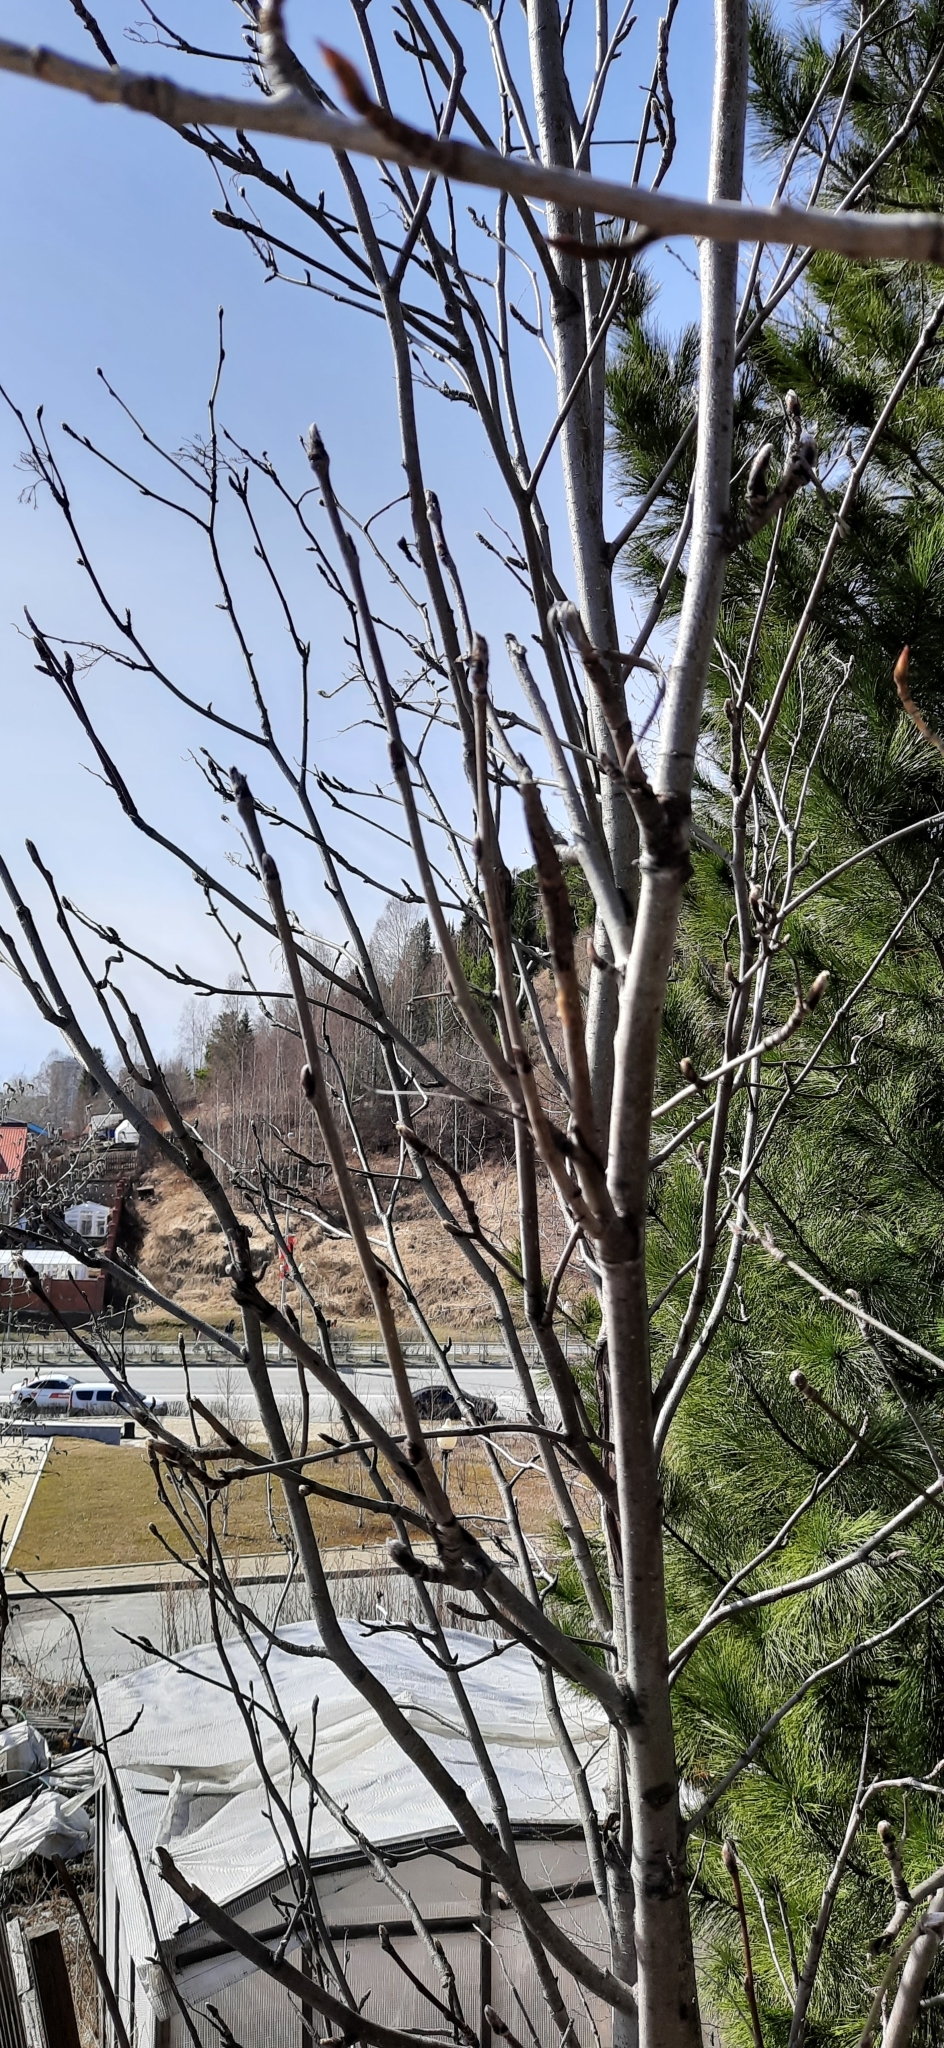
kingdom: Plantae
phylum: Tracheophyta
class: Magnoliopsida
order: Rosales
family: Rosaceae
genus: Sorbus
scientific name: Sorbus aucuparia
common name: Rowan
